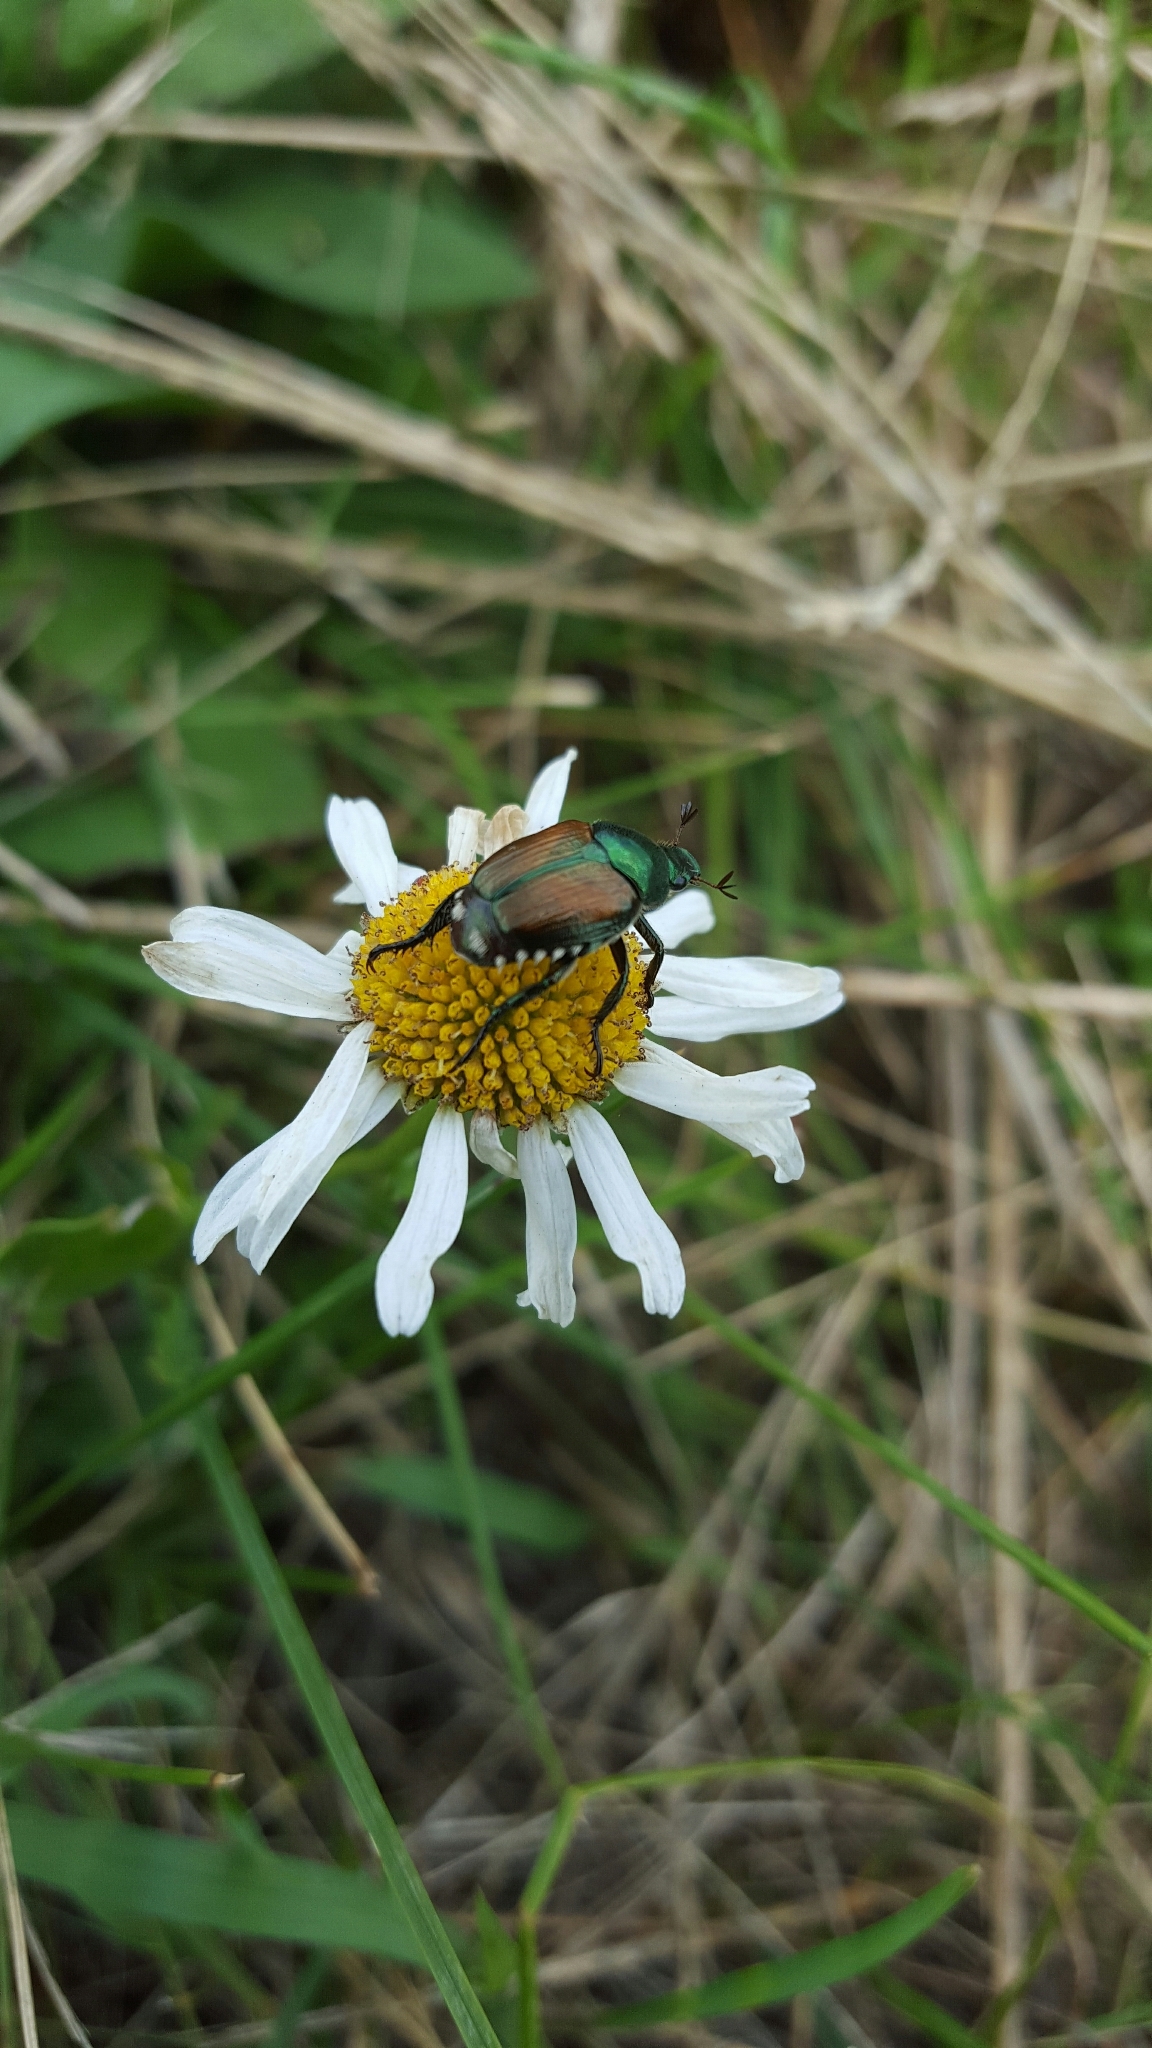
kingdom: Animalia
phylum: Arthropoda
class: Insecta
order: Coleoptera
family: Scarabaeidae
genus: Popillia
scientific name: Popillia japonica
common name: Japanese beetle
